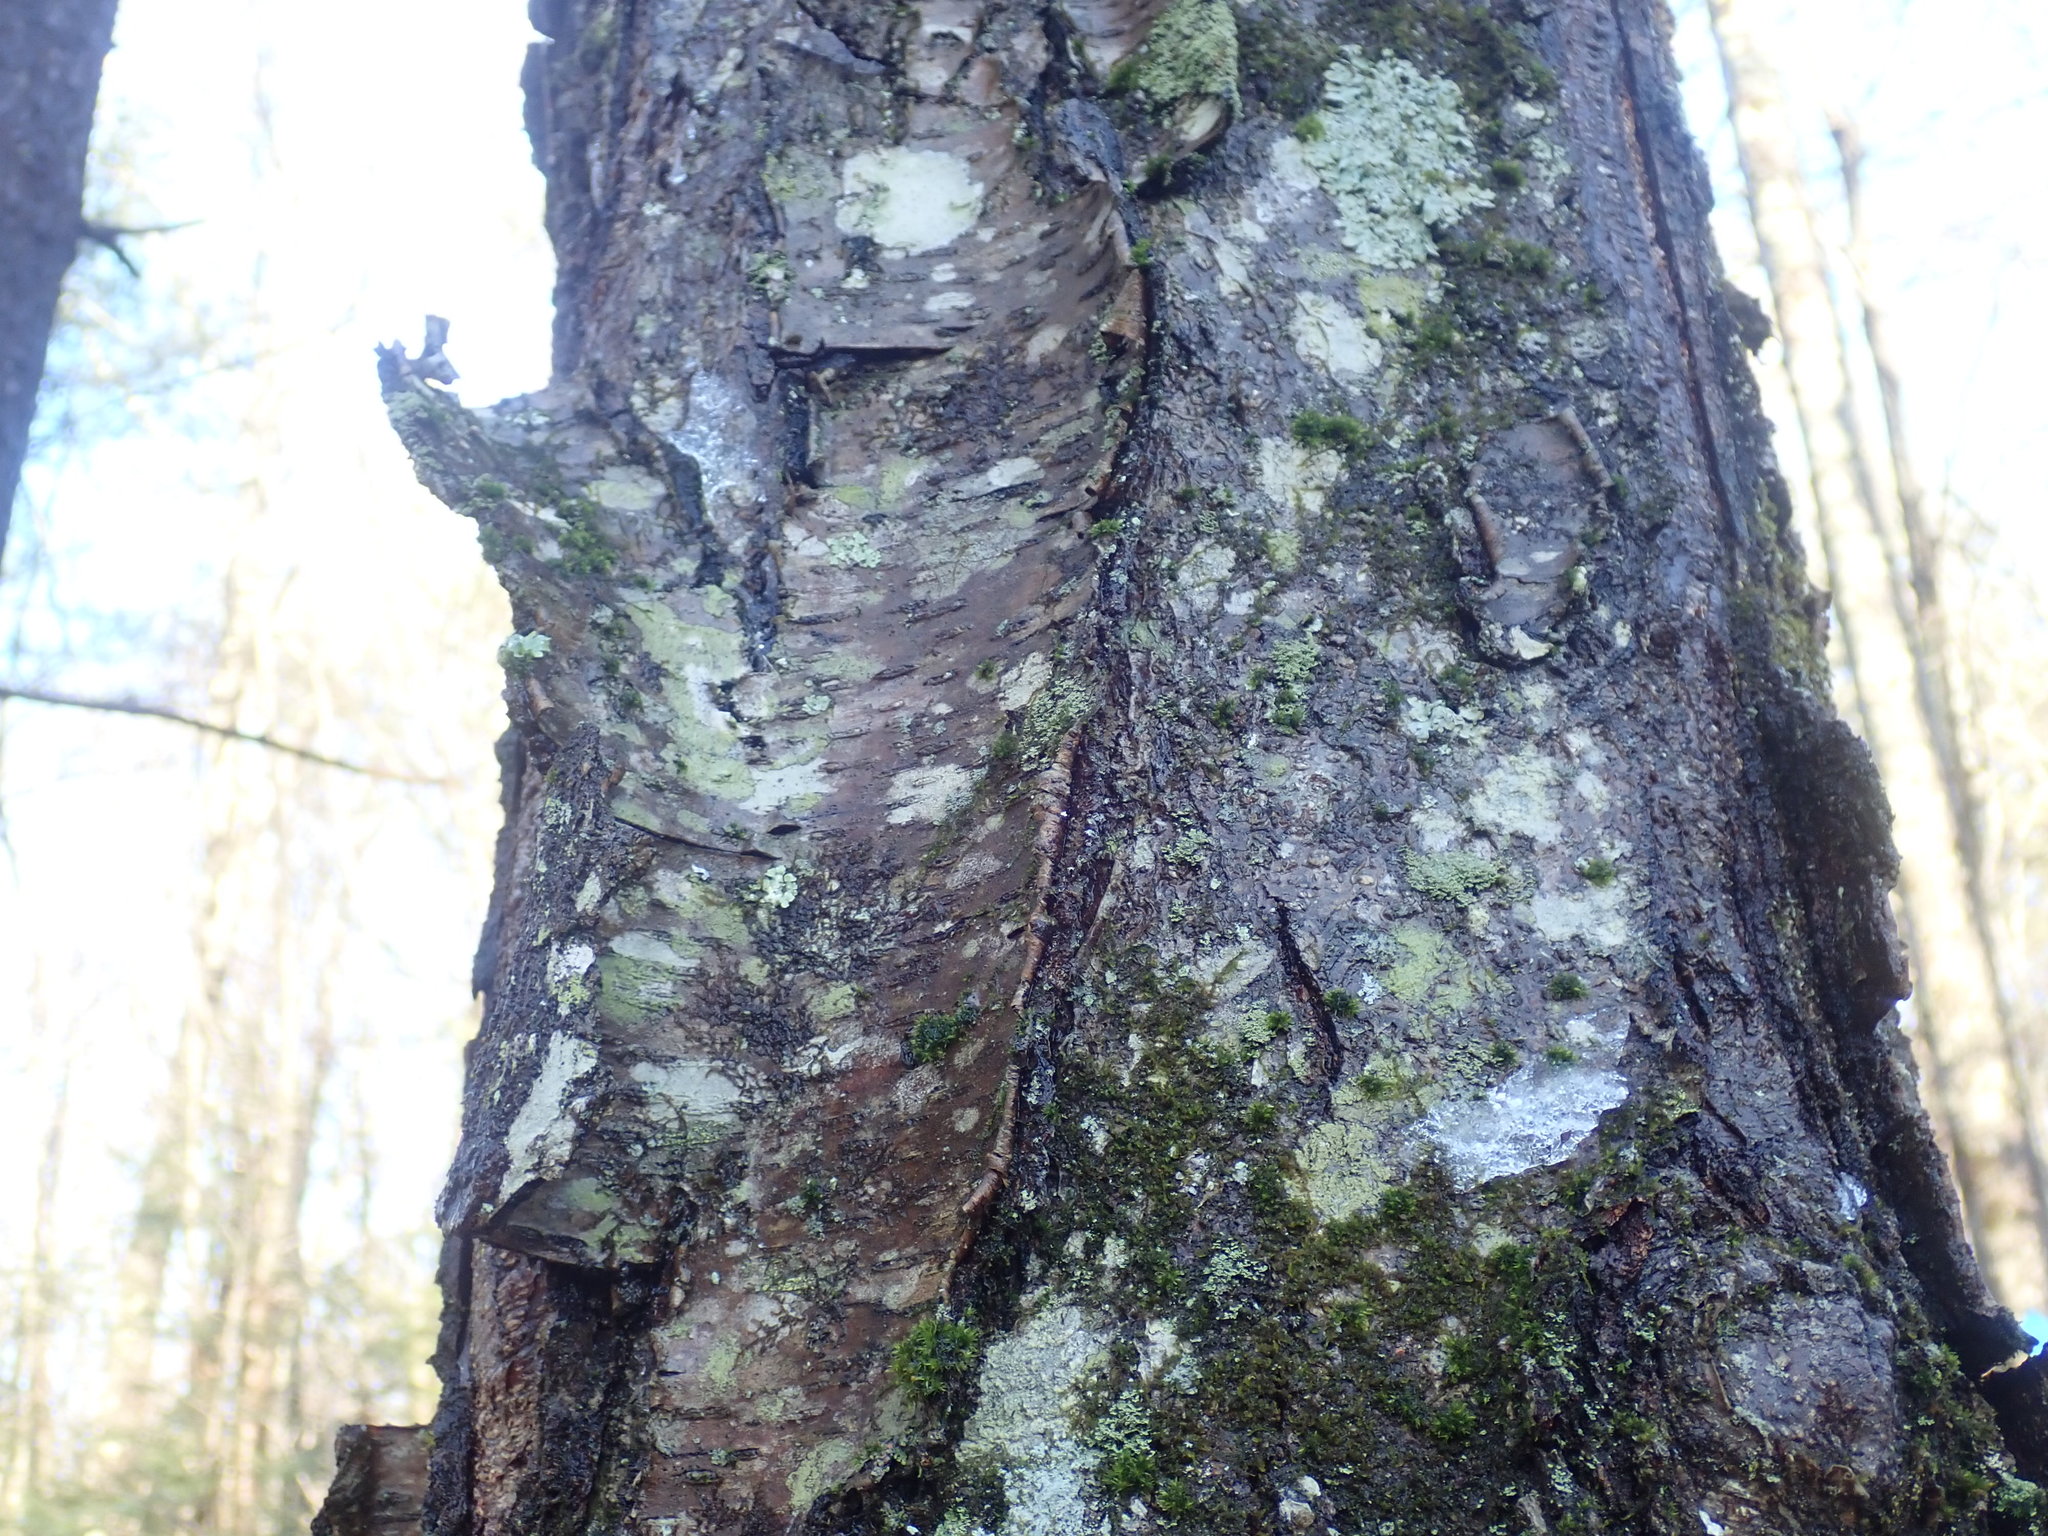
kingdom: Plantae
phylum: Tracheophyta
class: Magnoliopsida
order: Fagales
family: Betulaceae
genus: Betula
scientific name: Betula lenta
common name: Black birch
